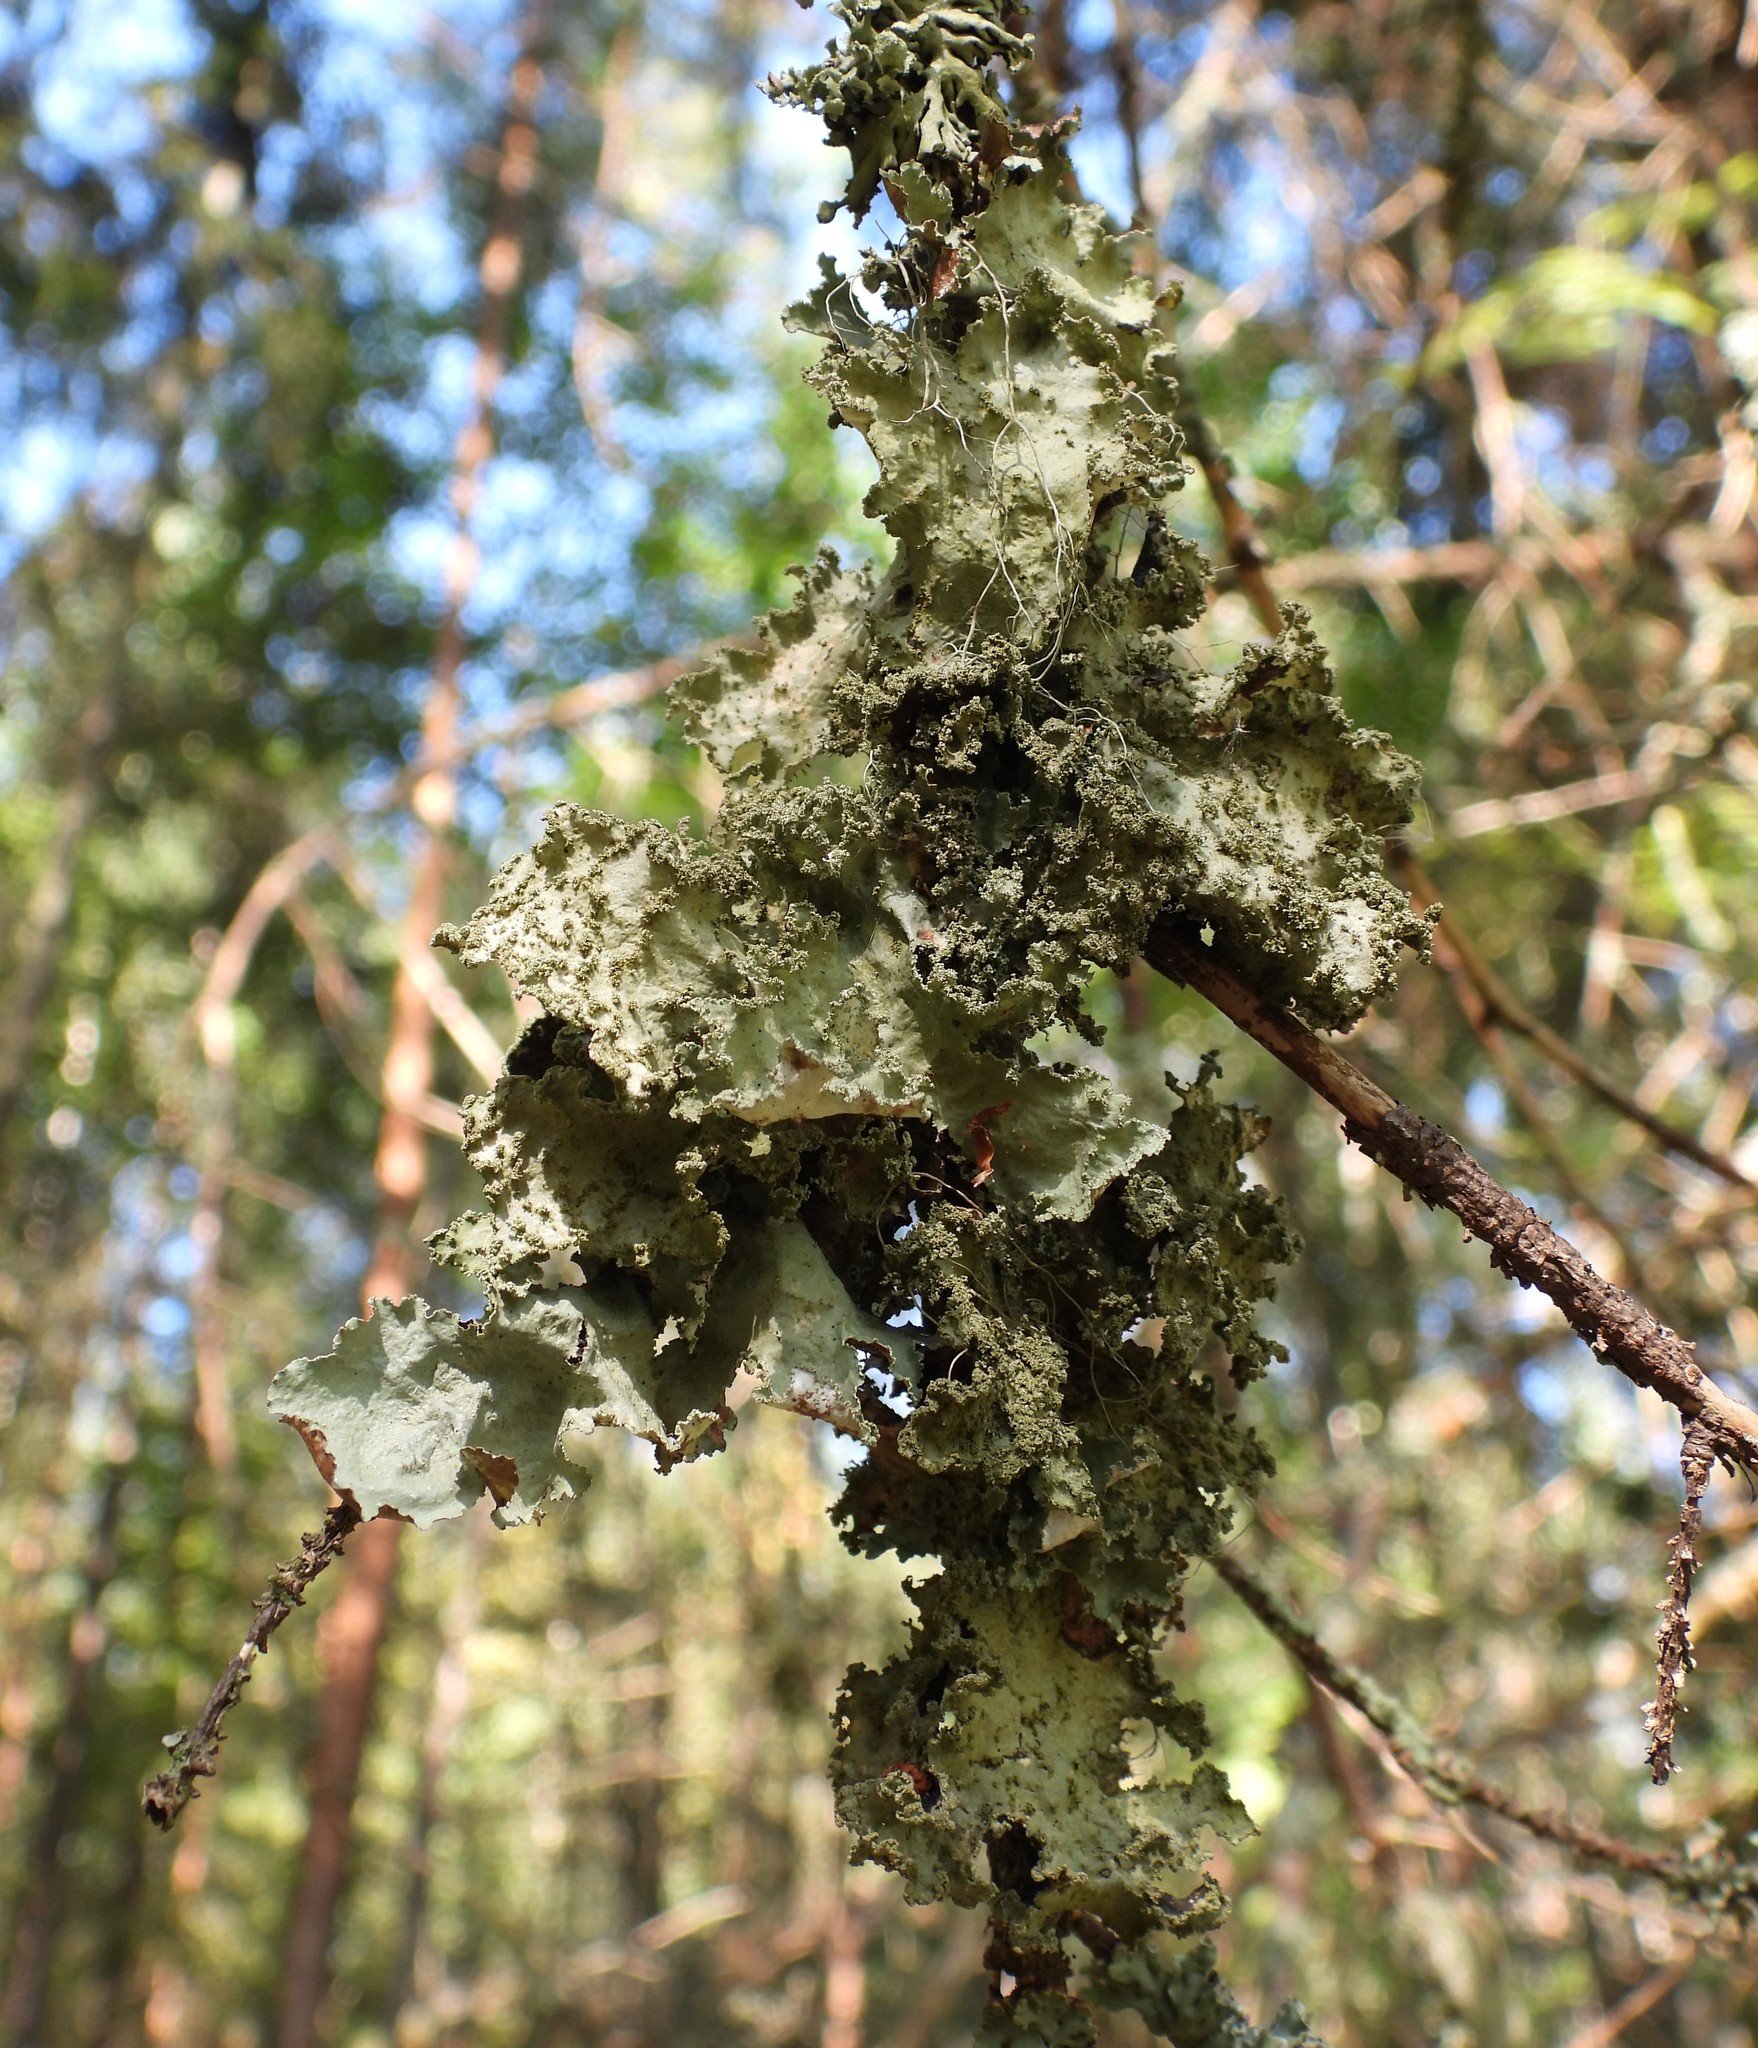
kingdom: Fungi
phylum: Ascomycota
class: Lecanoromycetes
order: Lecanorales
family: Parmeliaceae
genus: Platismatia
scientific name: Platismatia glauca
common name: Varied rag lichen
